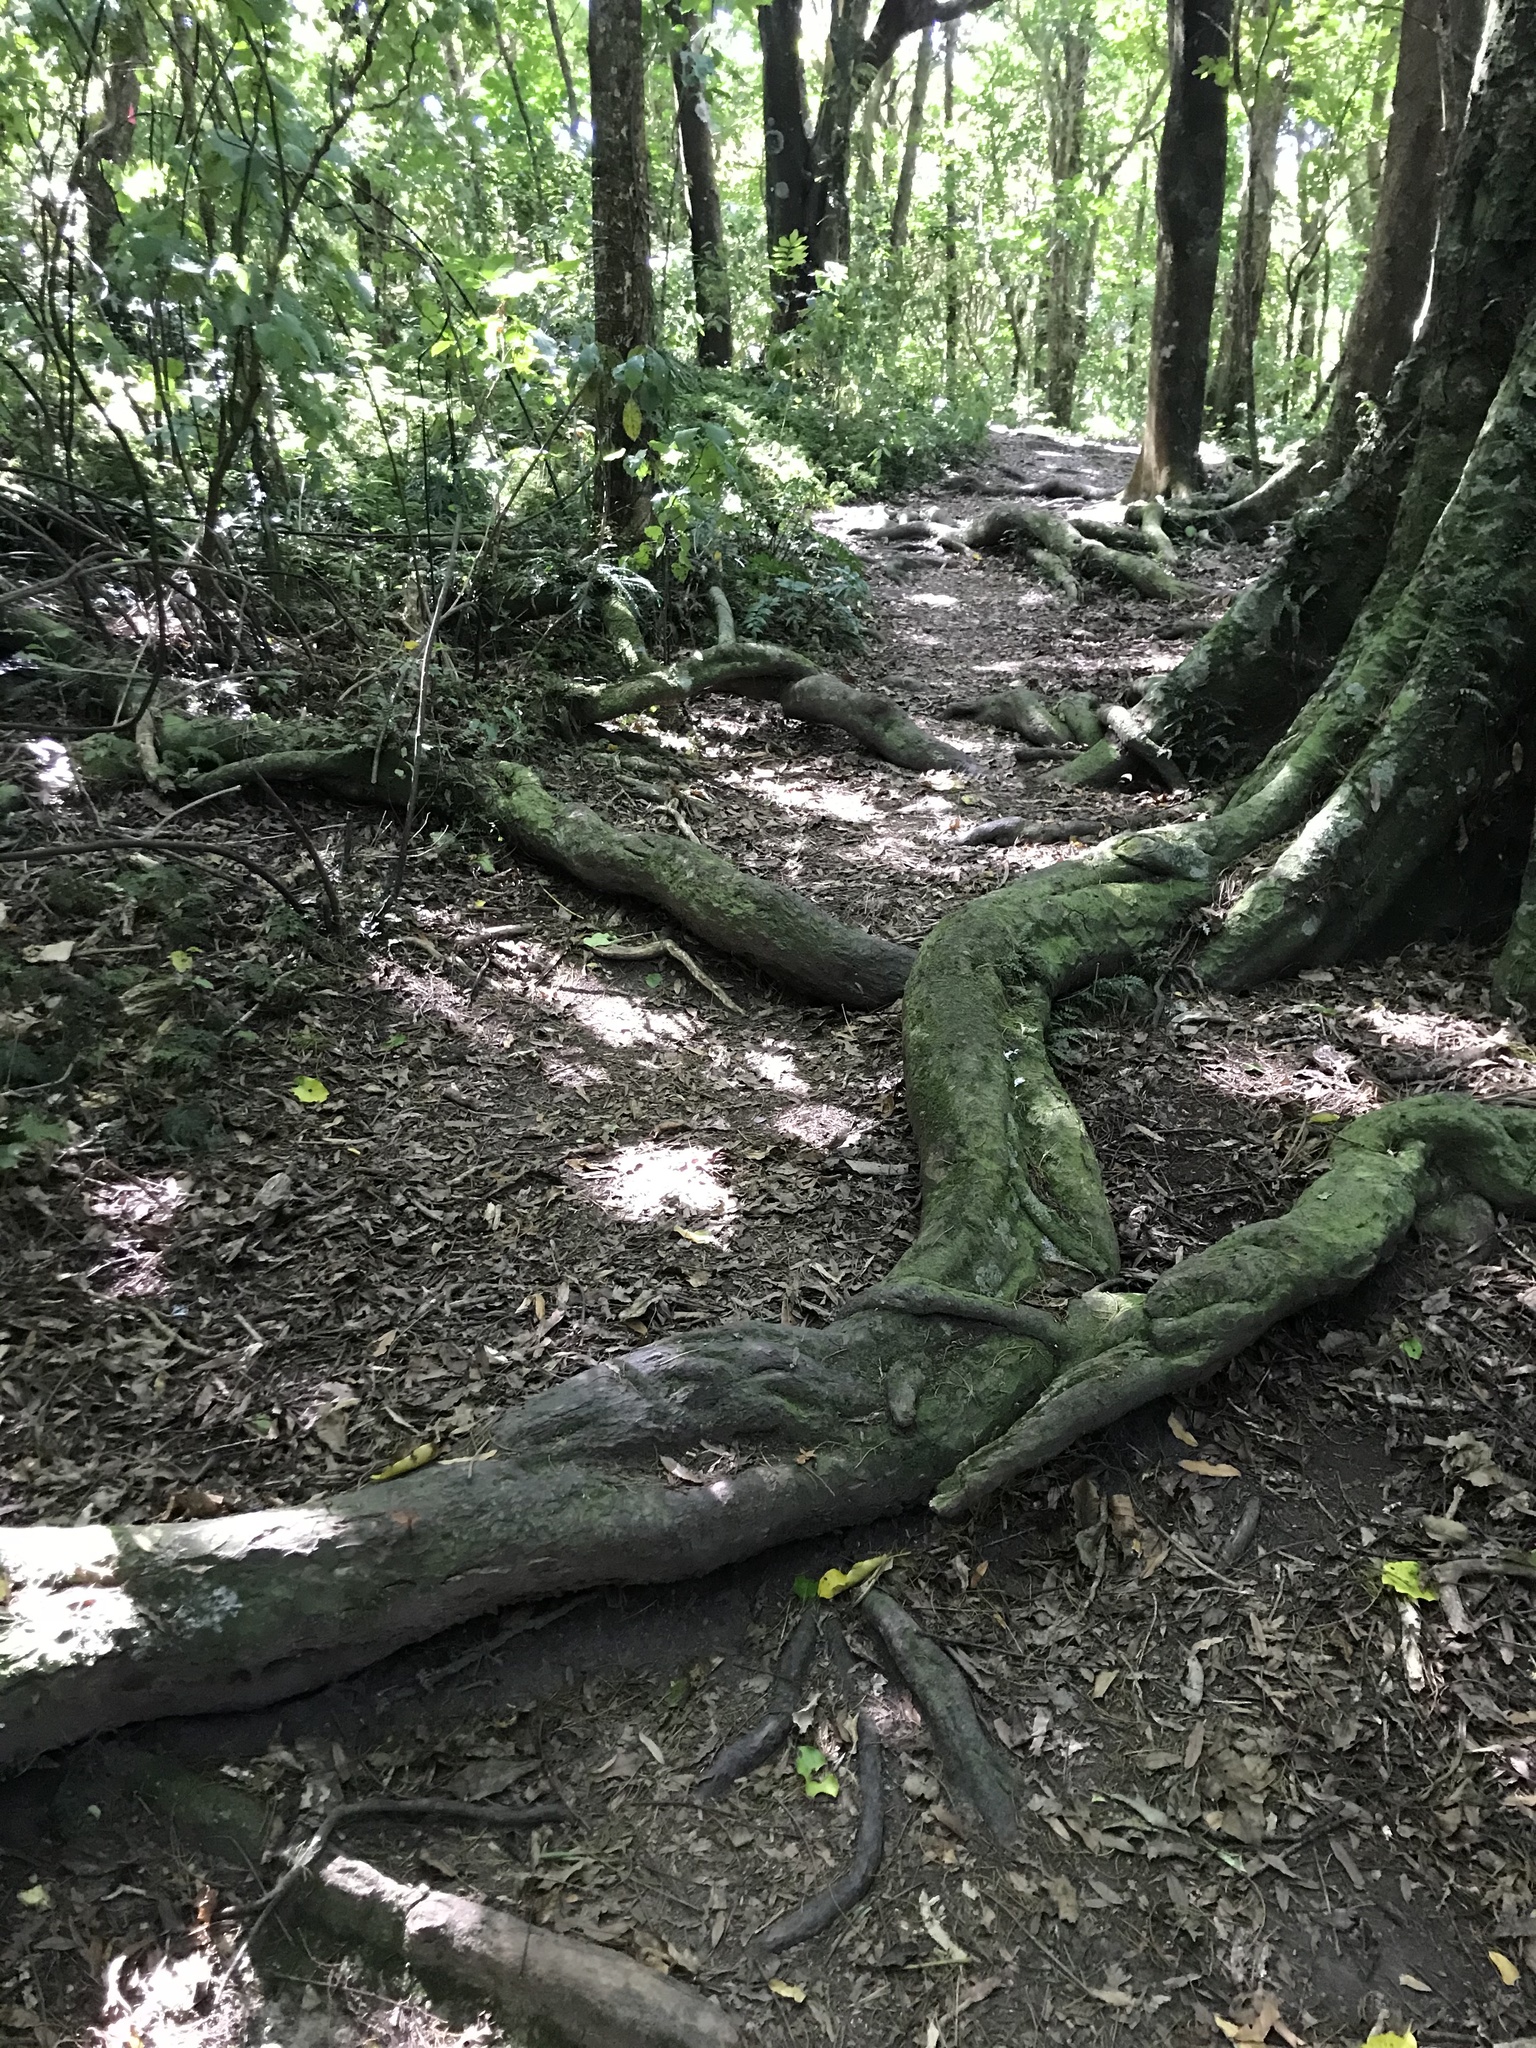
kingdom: Plantae
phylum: Tracheophyta
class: Pinopsida
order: Pinales
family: Podocarpaceae
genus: Dacrycarpus
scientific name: Dacrycarpus dacrydioides
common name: White pine
